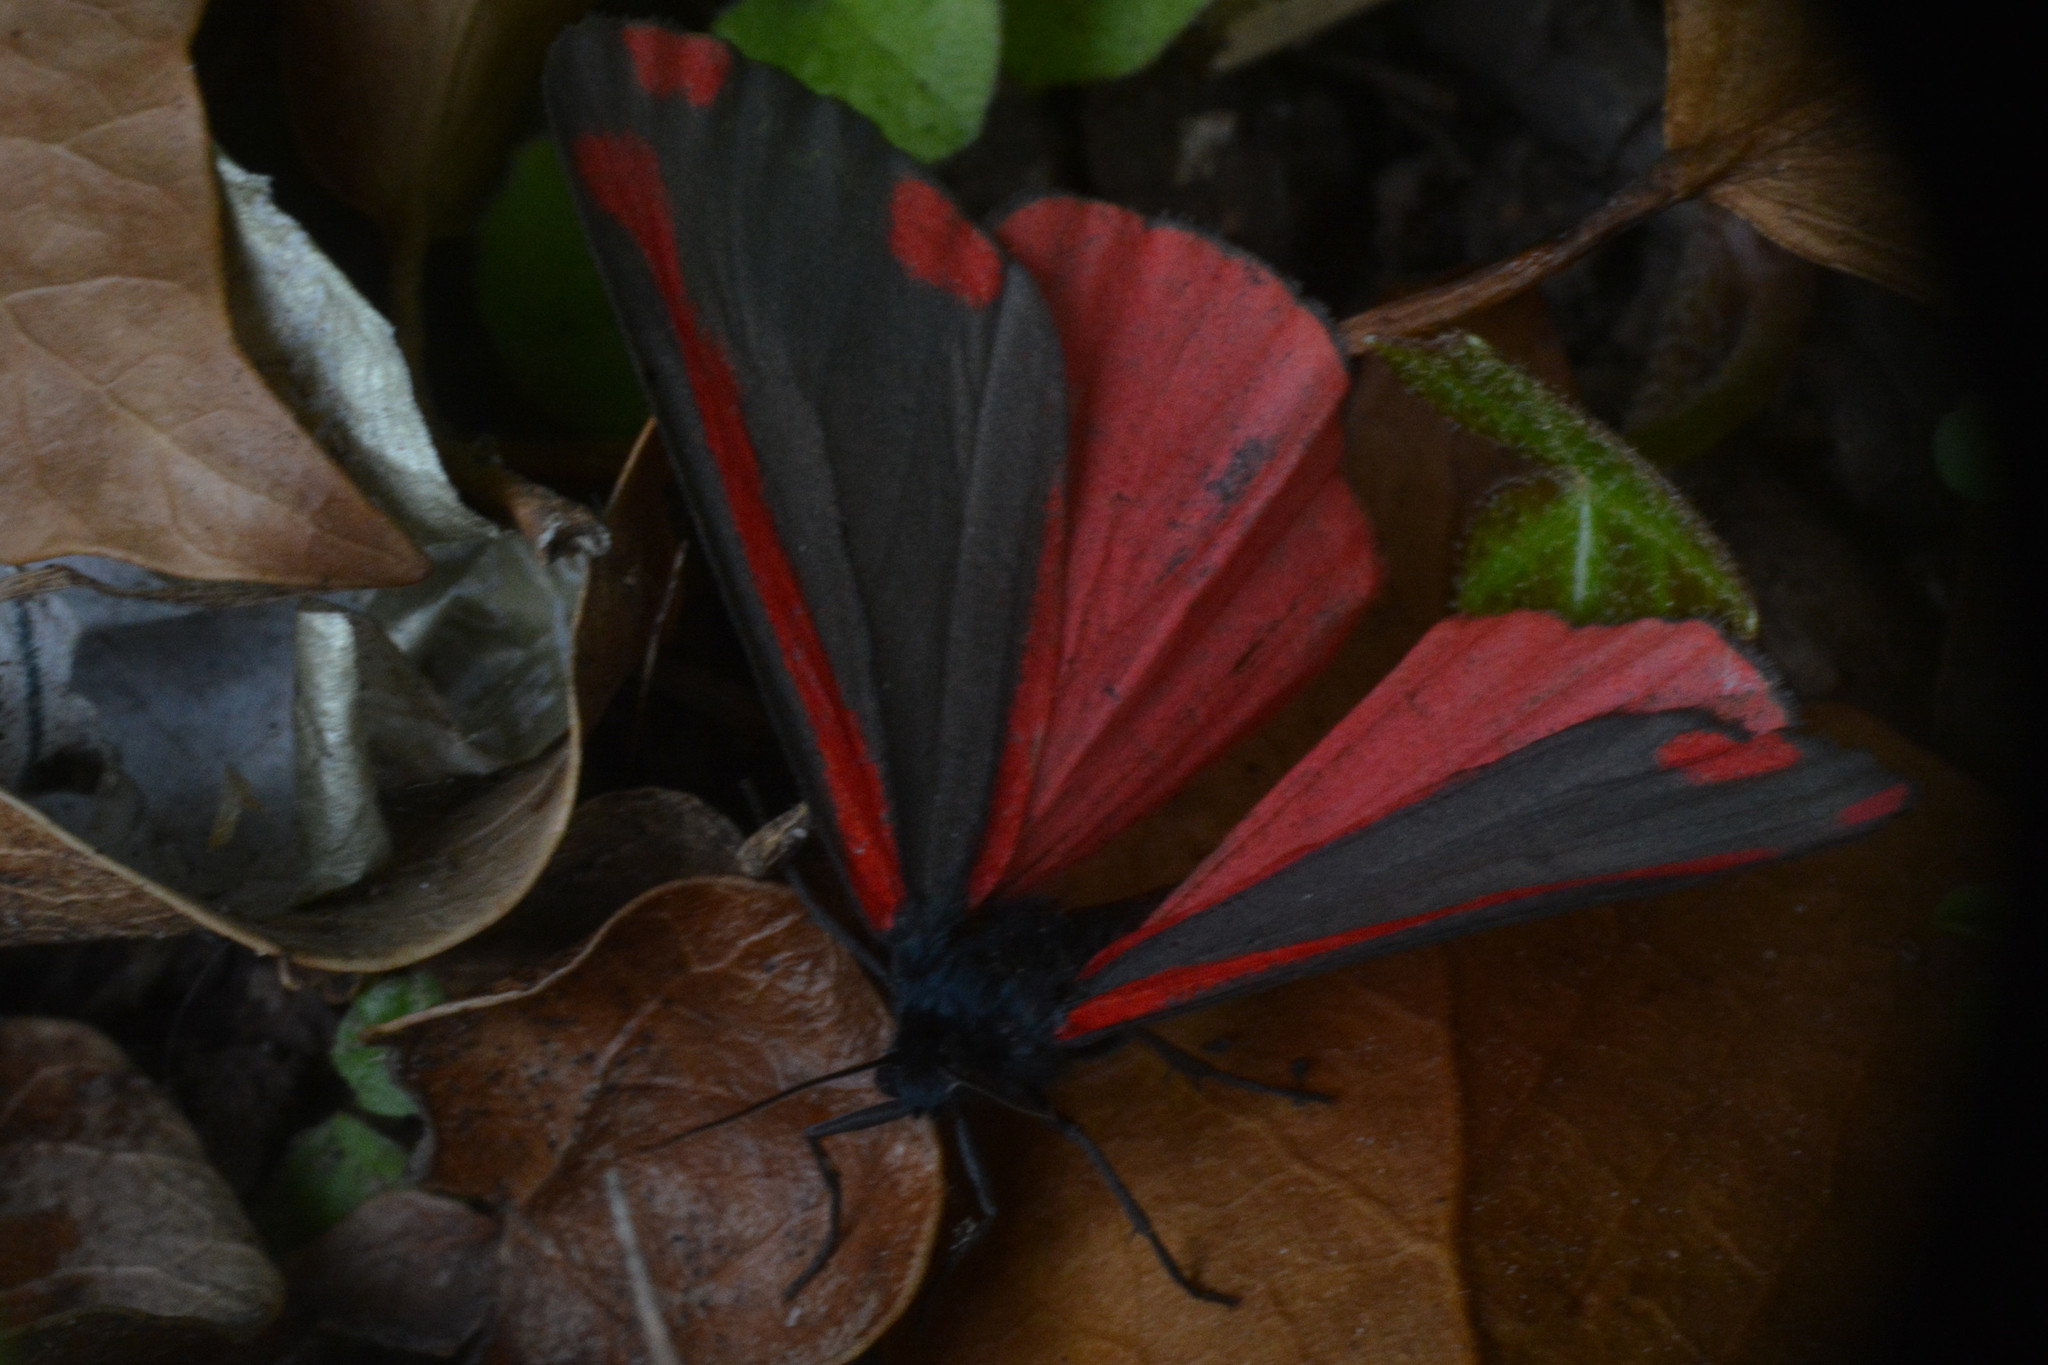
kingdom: Animalia
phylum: Arthropoda
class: Insecta
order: Lepidoptera
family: Erebidae
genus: Tyria
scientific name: Tyria jacobaeae
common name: Cinnabar
